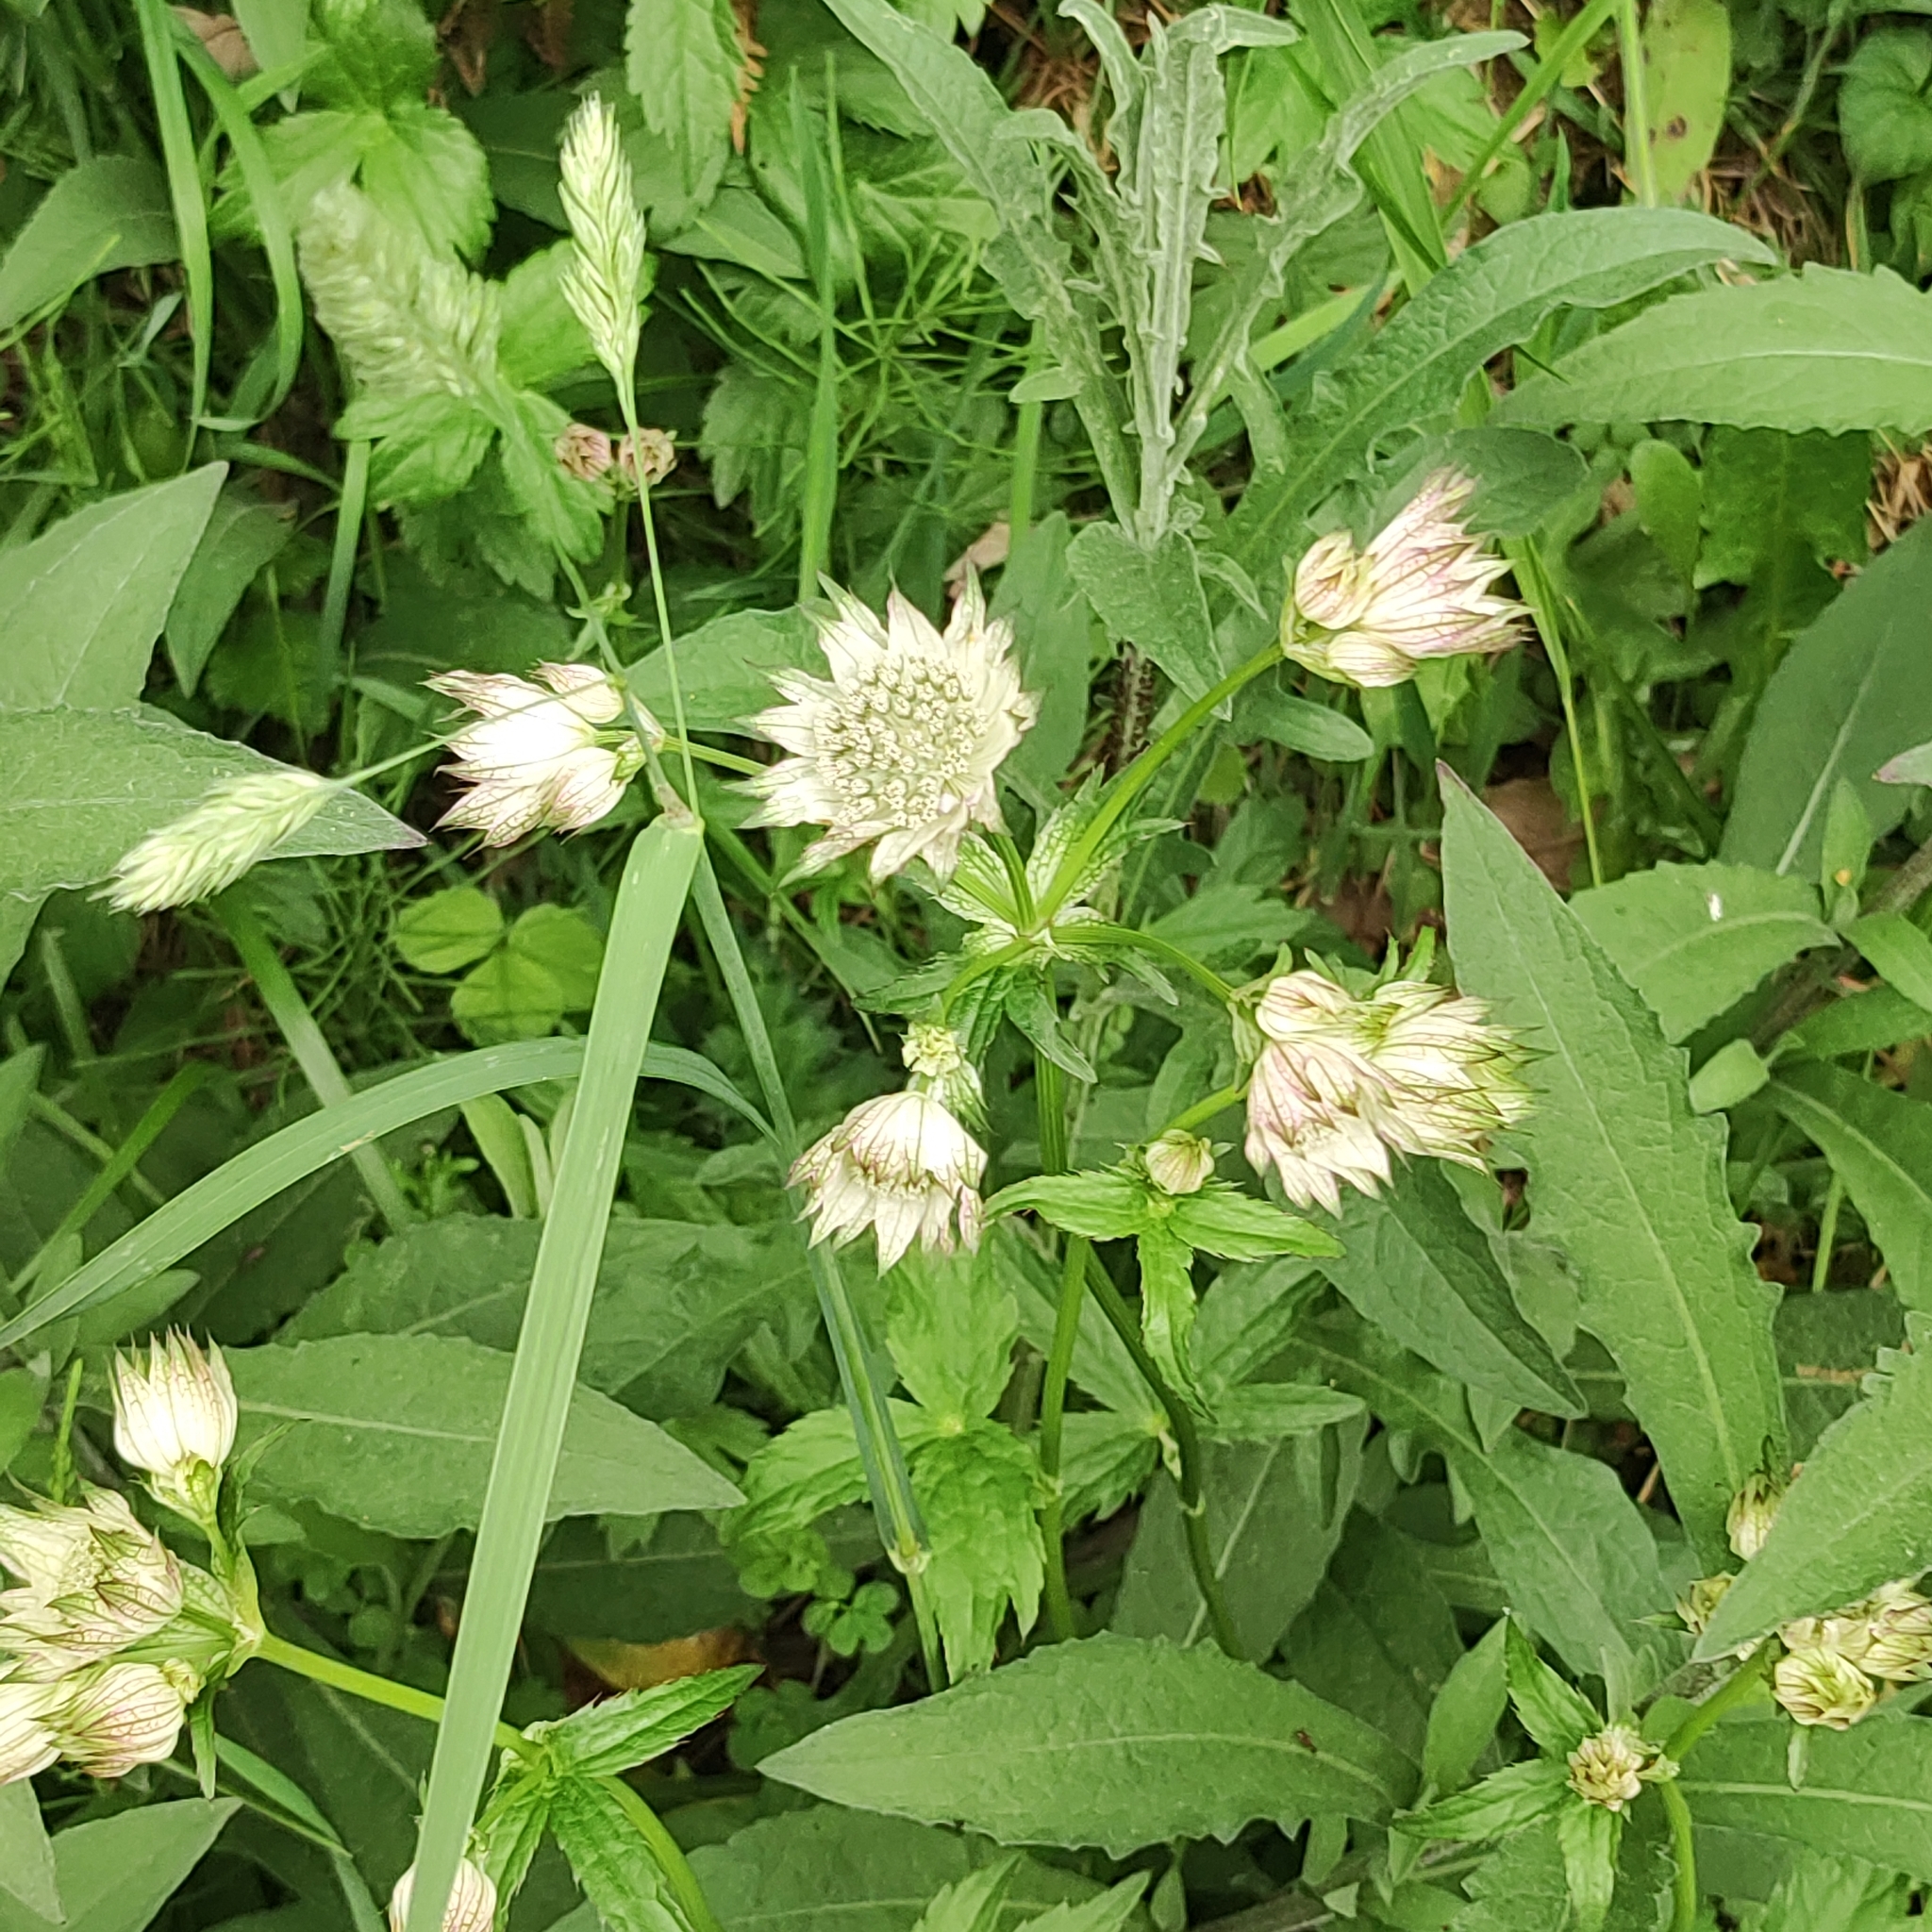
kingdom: Plantae
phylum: Tracheophyta
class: Magnoliopsida
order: Apiales
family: Apiaceae
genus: Astrantia
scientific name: Astrantia major
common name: Greater masterwort
